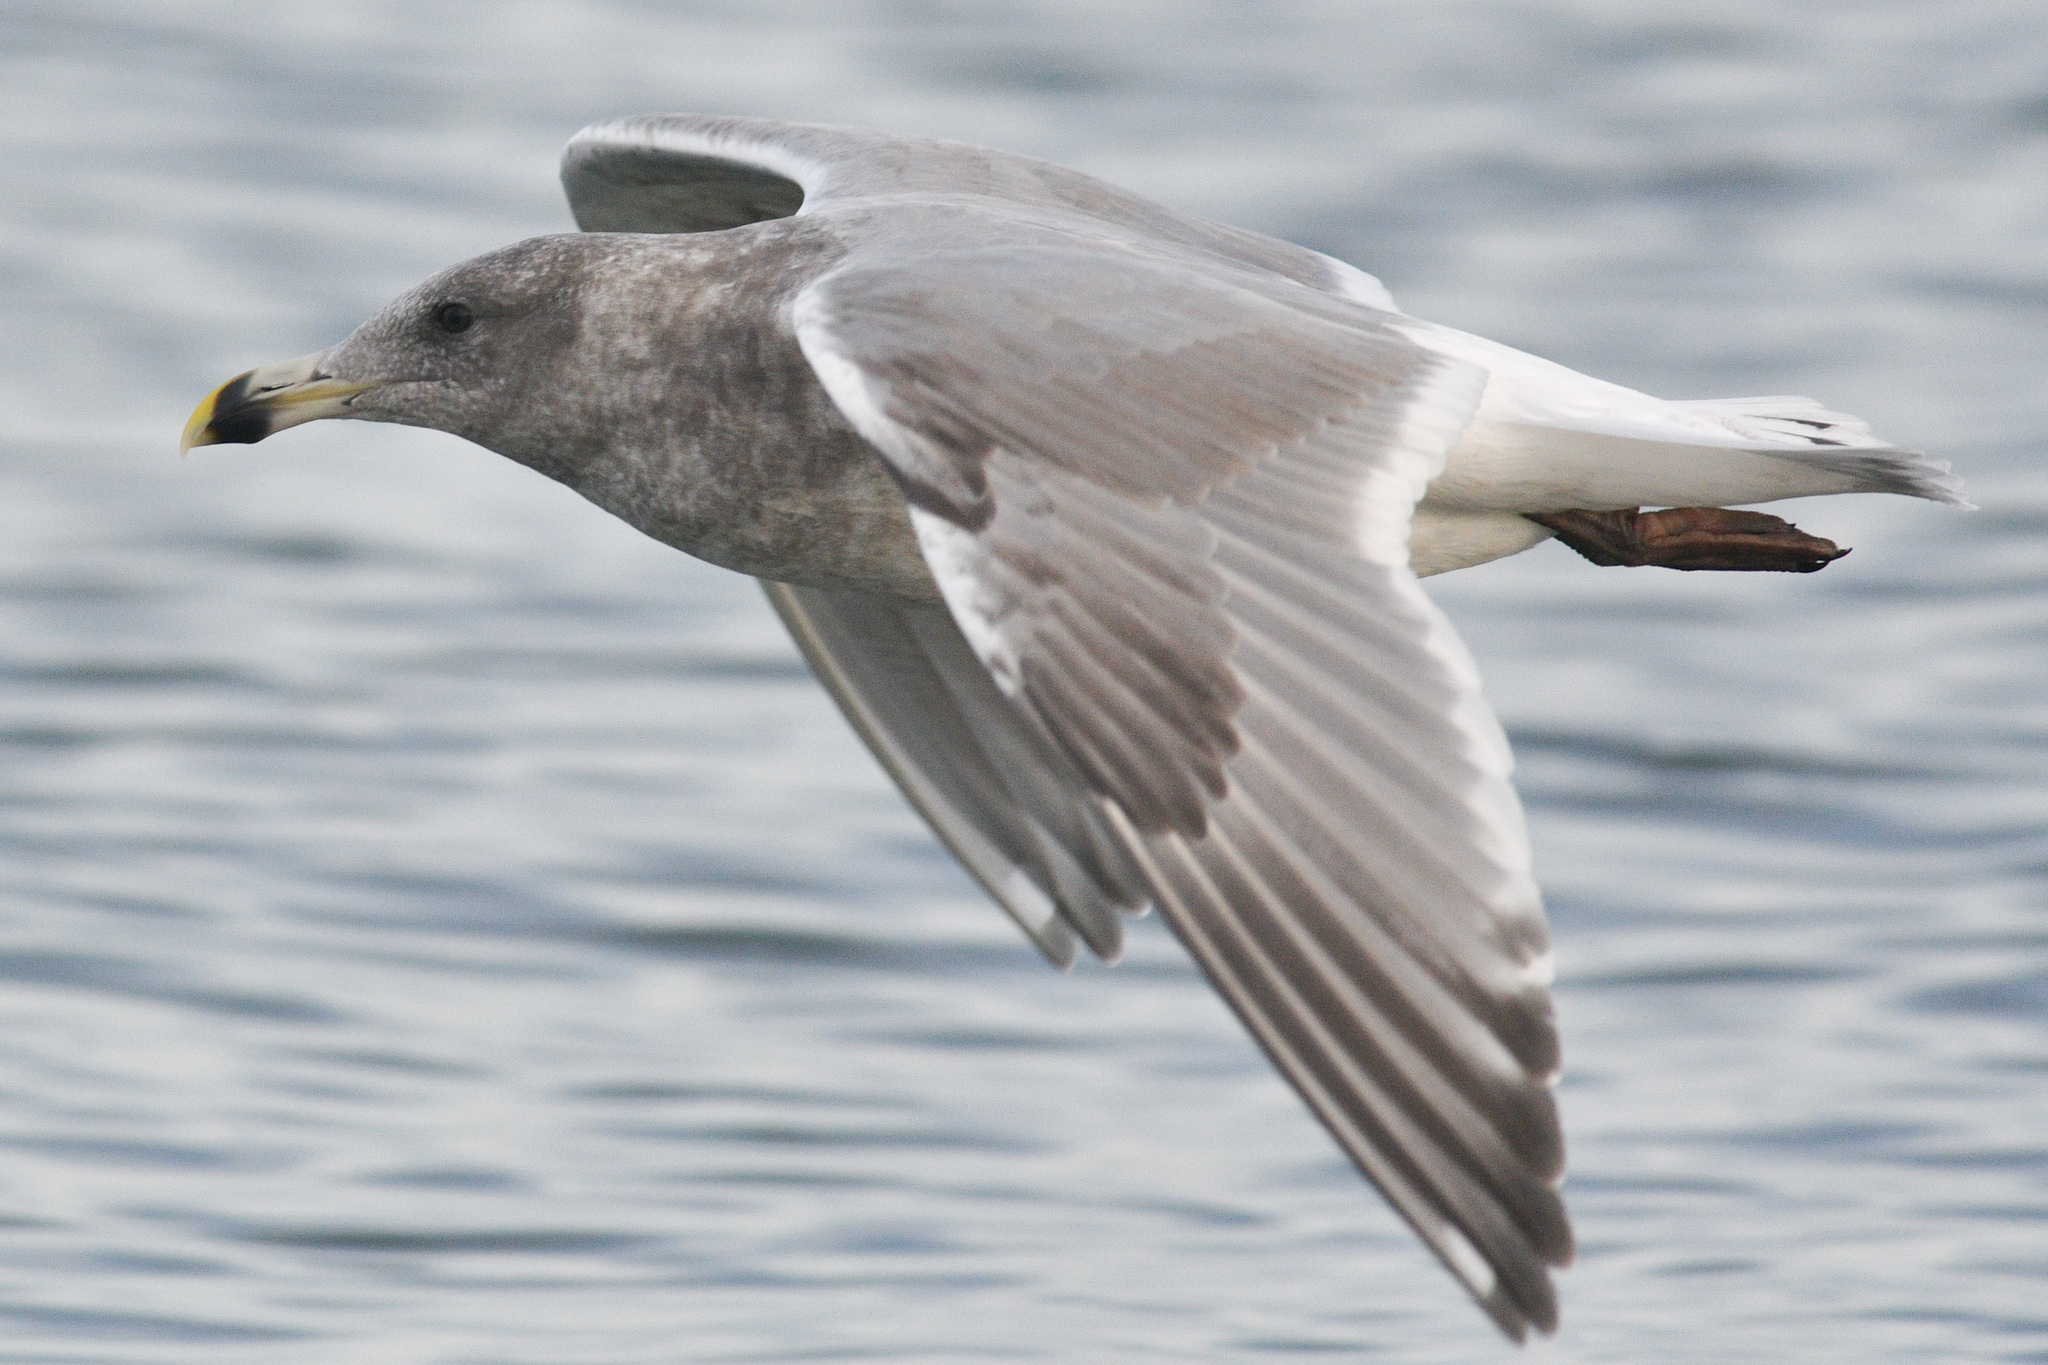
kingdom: Animalia
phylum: Chordata
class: Aves
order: Charadriiformes
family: Laridae
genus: Larus
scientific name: Larus
